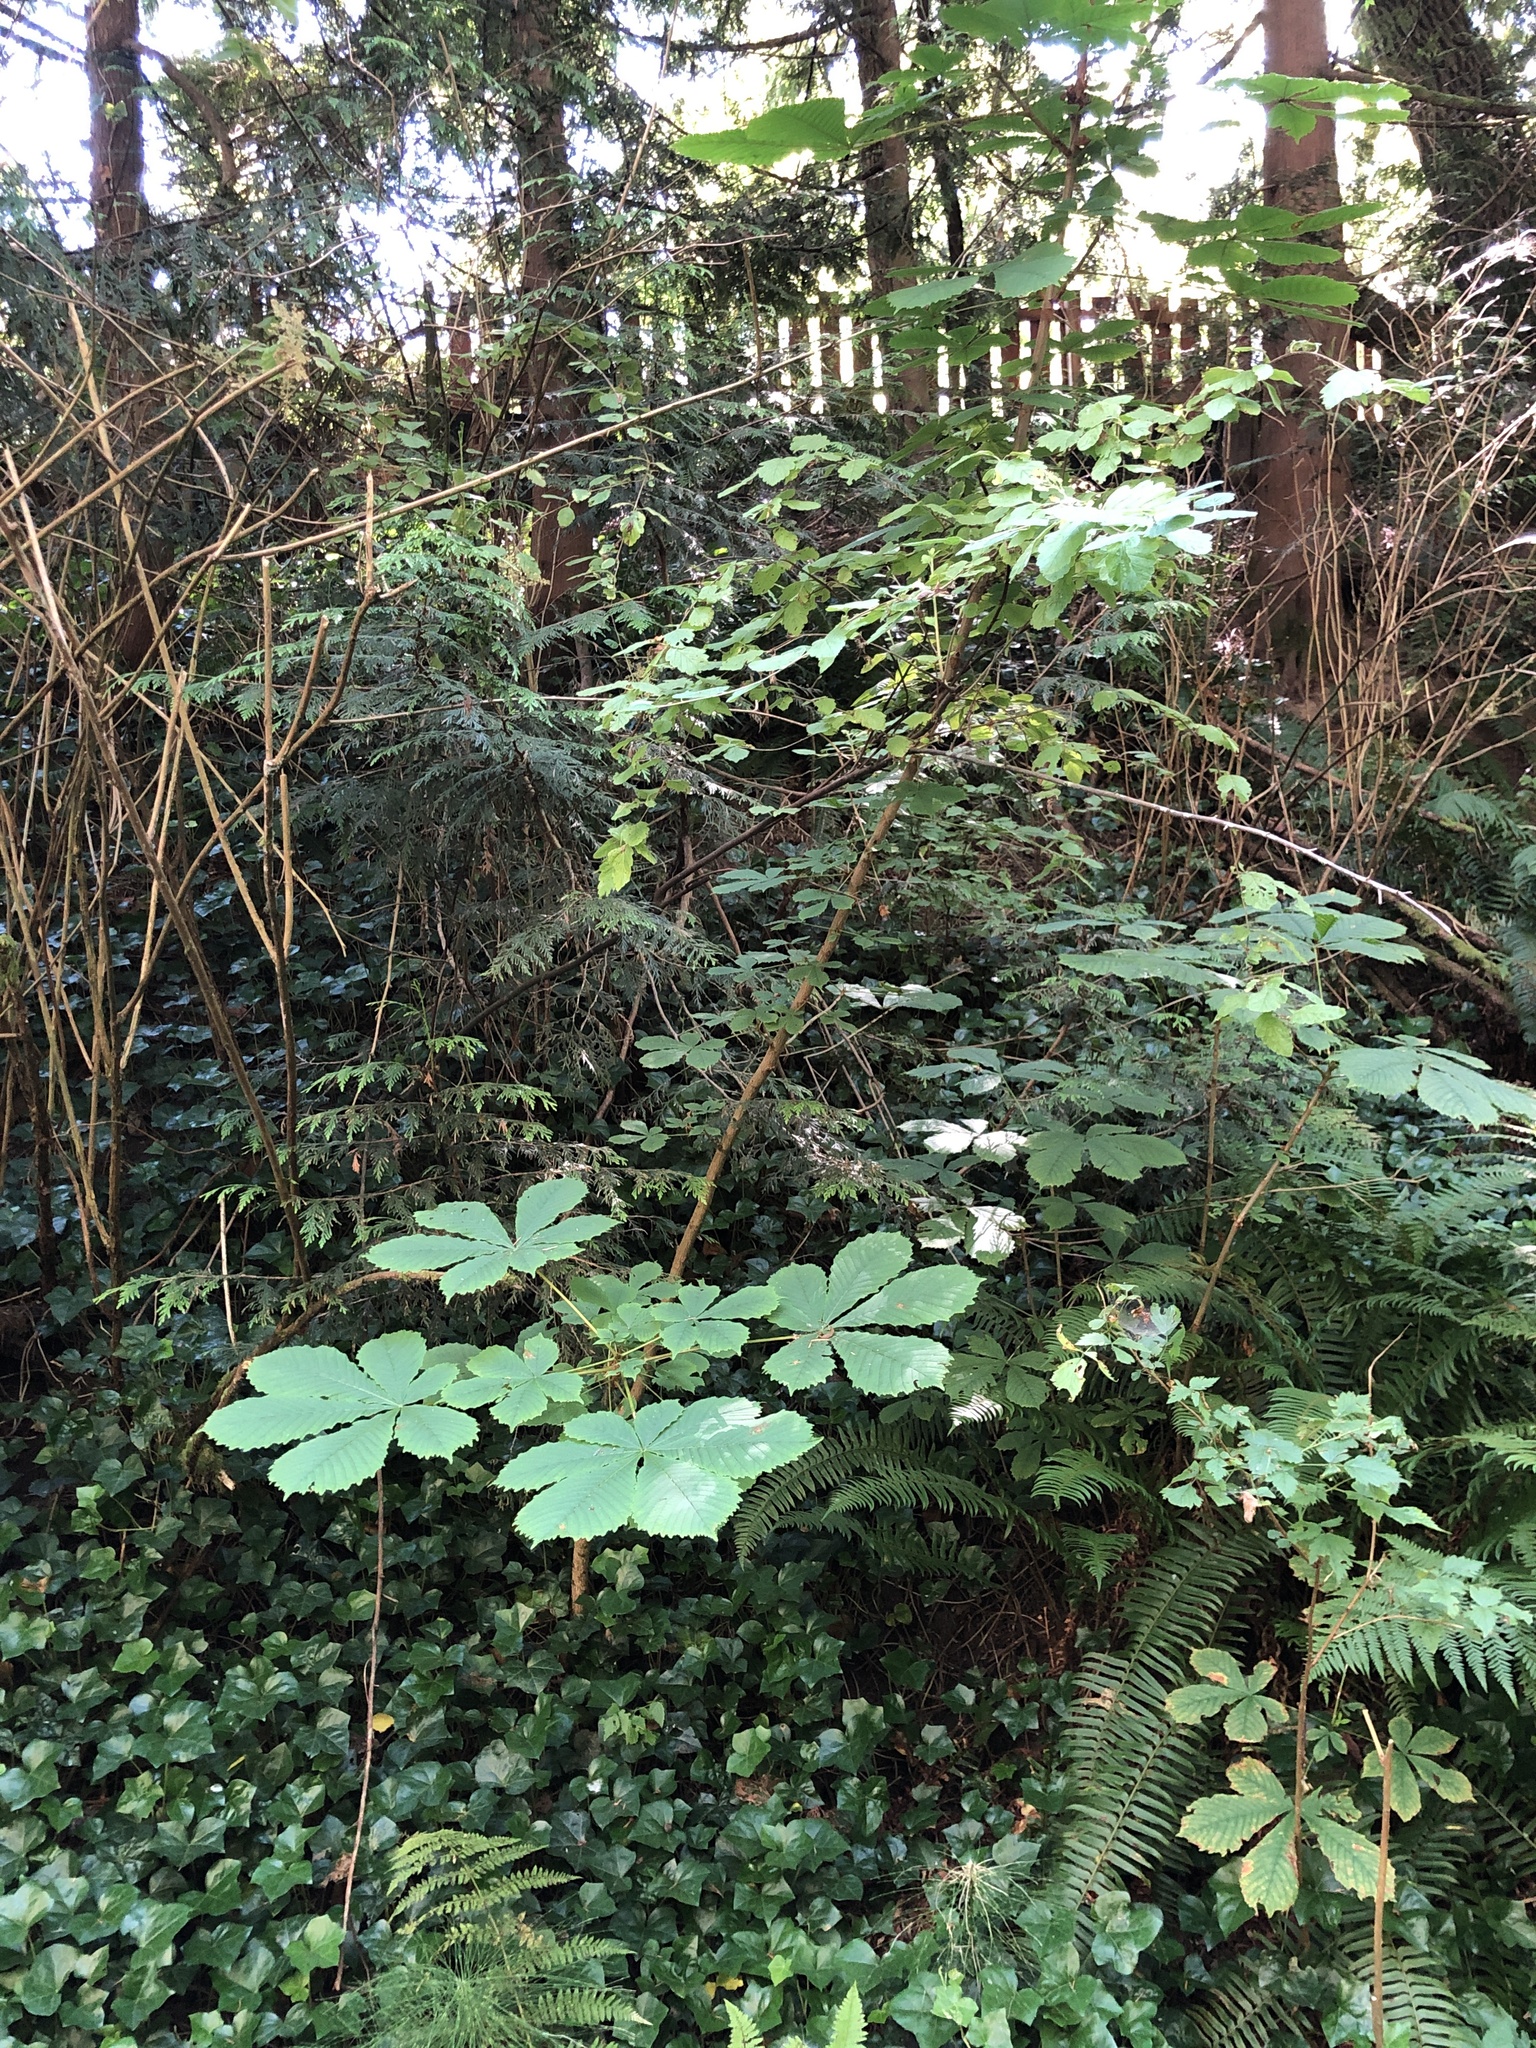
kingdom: Plantae
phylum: Tracheophyta
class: Magnoliopsida
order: Sapindales
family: Sapindaceae
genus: Aesculus
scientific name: Aesculus hippocastanum
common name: Horse-chestnut
